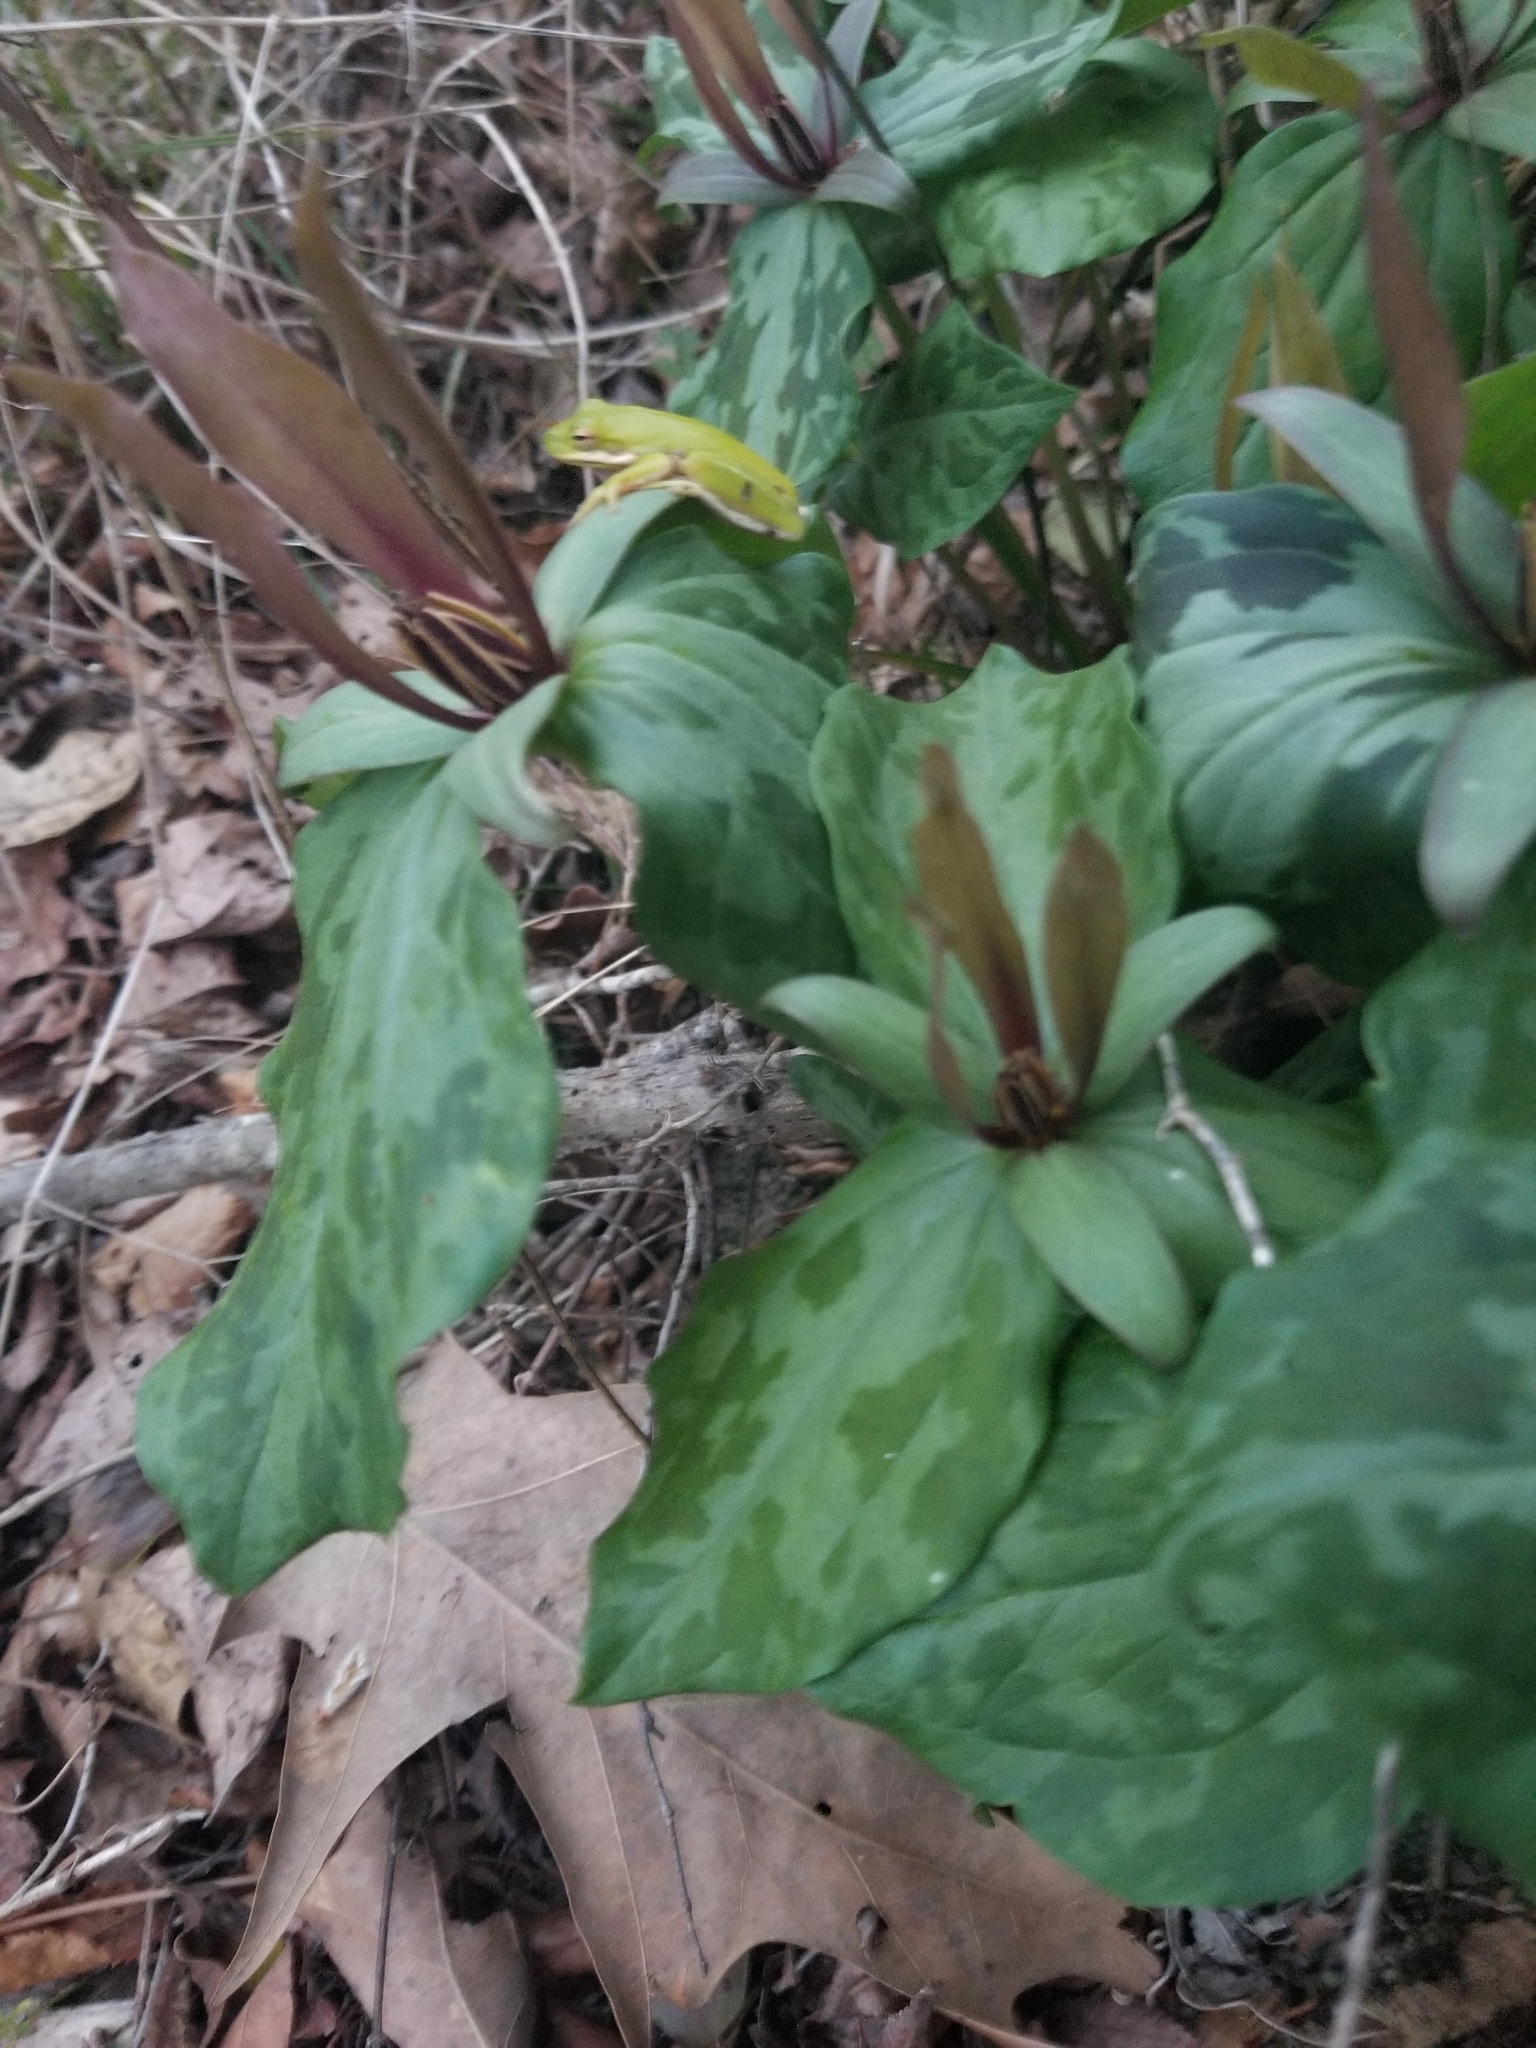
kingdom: Animalia
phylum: Chordata
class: Amphibia
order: Anura
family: Hylidae
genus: Dryophytes
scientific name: Dryophytes cinereus
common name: Green treefrog
